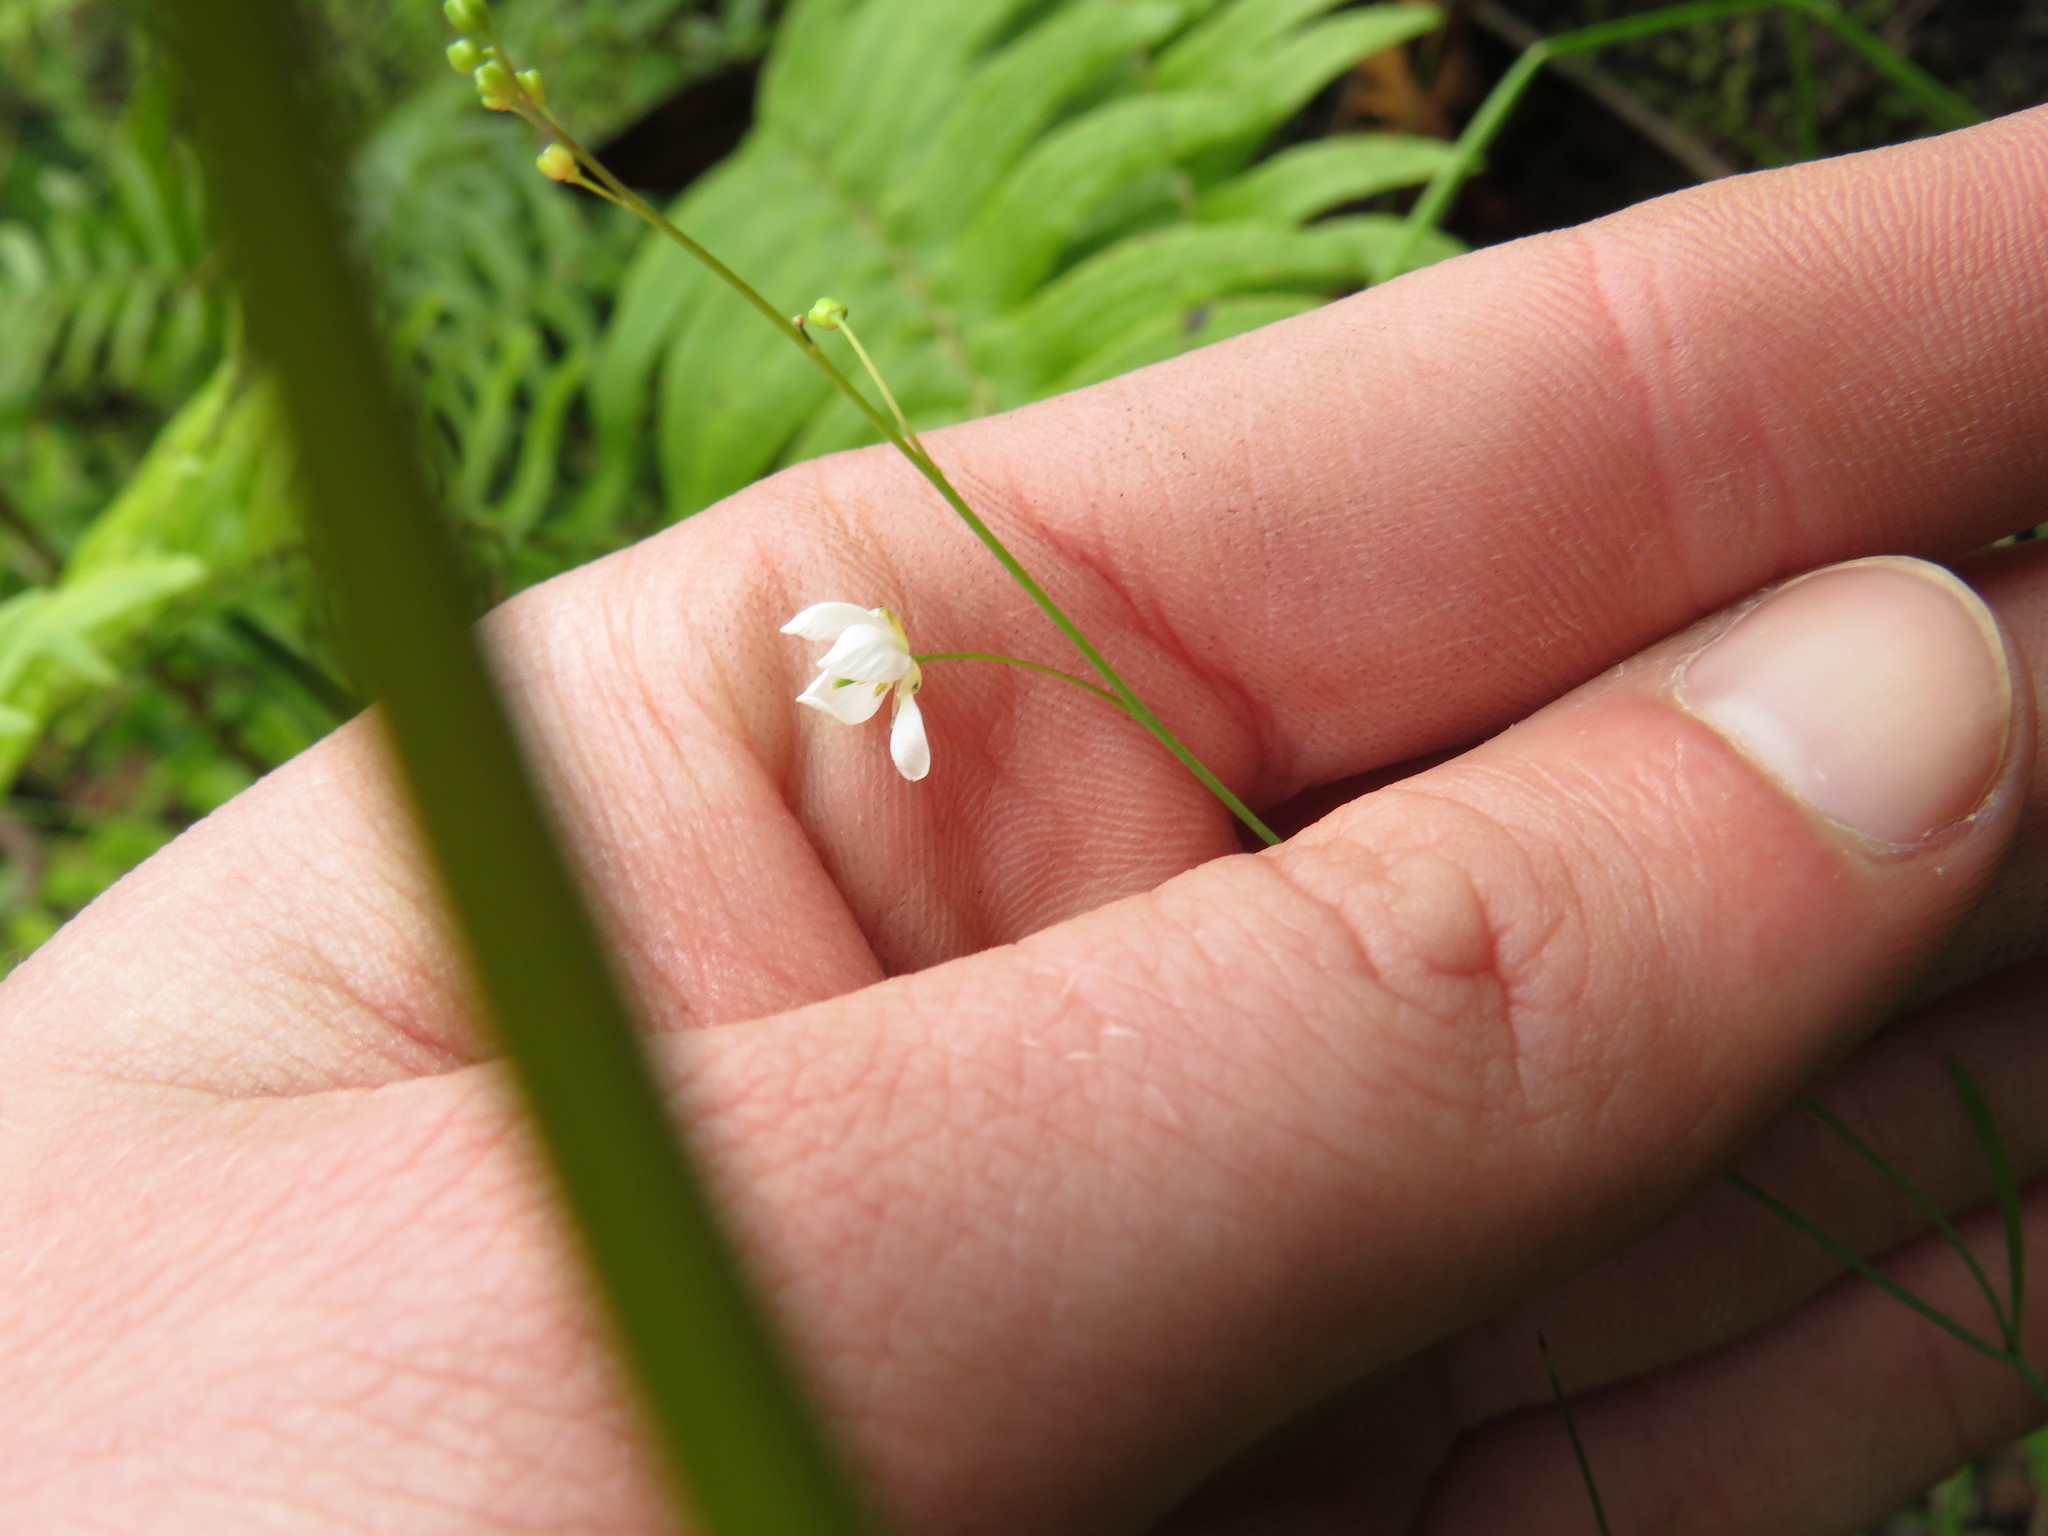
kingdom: Plantae
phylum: Tracheophyta
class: Magnoliopsida
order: Brassicales
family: Brassicaceae
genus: Heliophila
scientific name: Heliophila meyeri
